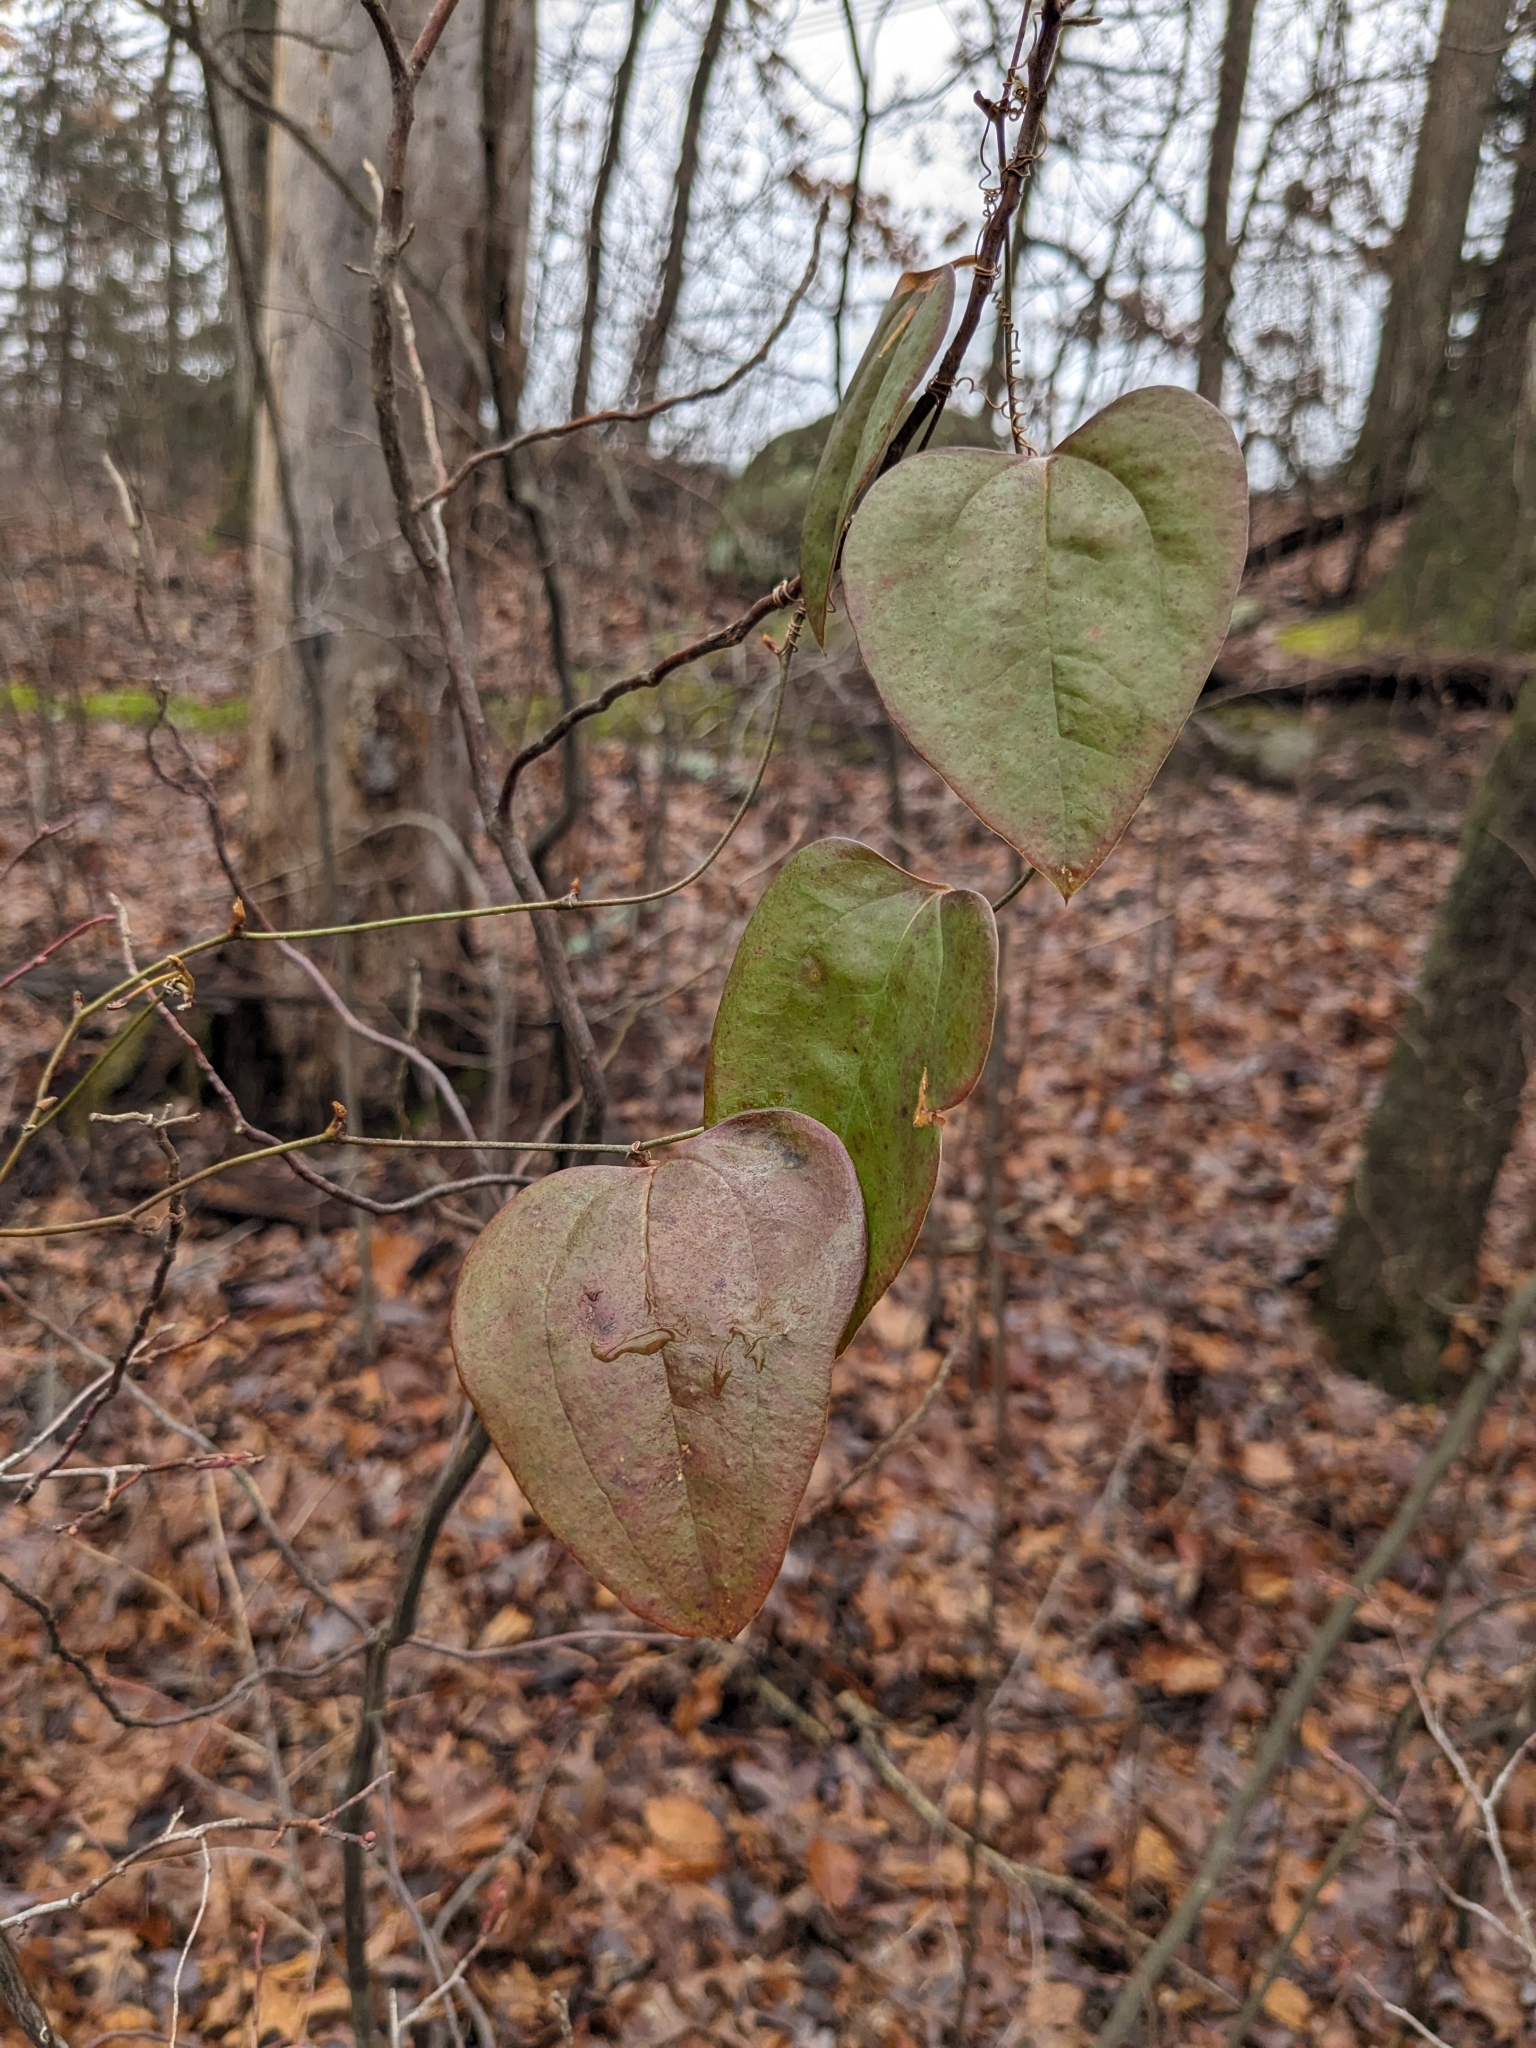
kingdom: Plantae
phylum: Tracheophyta
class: Liliopsida
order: Liliales
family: Smilacaceae
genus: Smilax
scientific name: Smilax glauca
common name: Cat greenbrier
